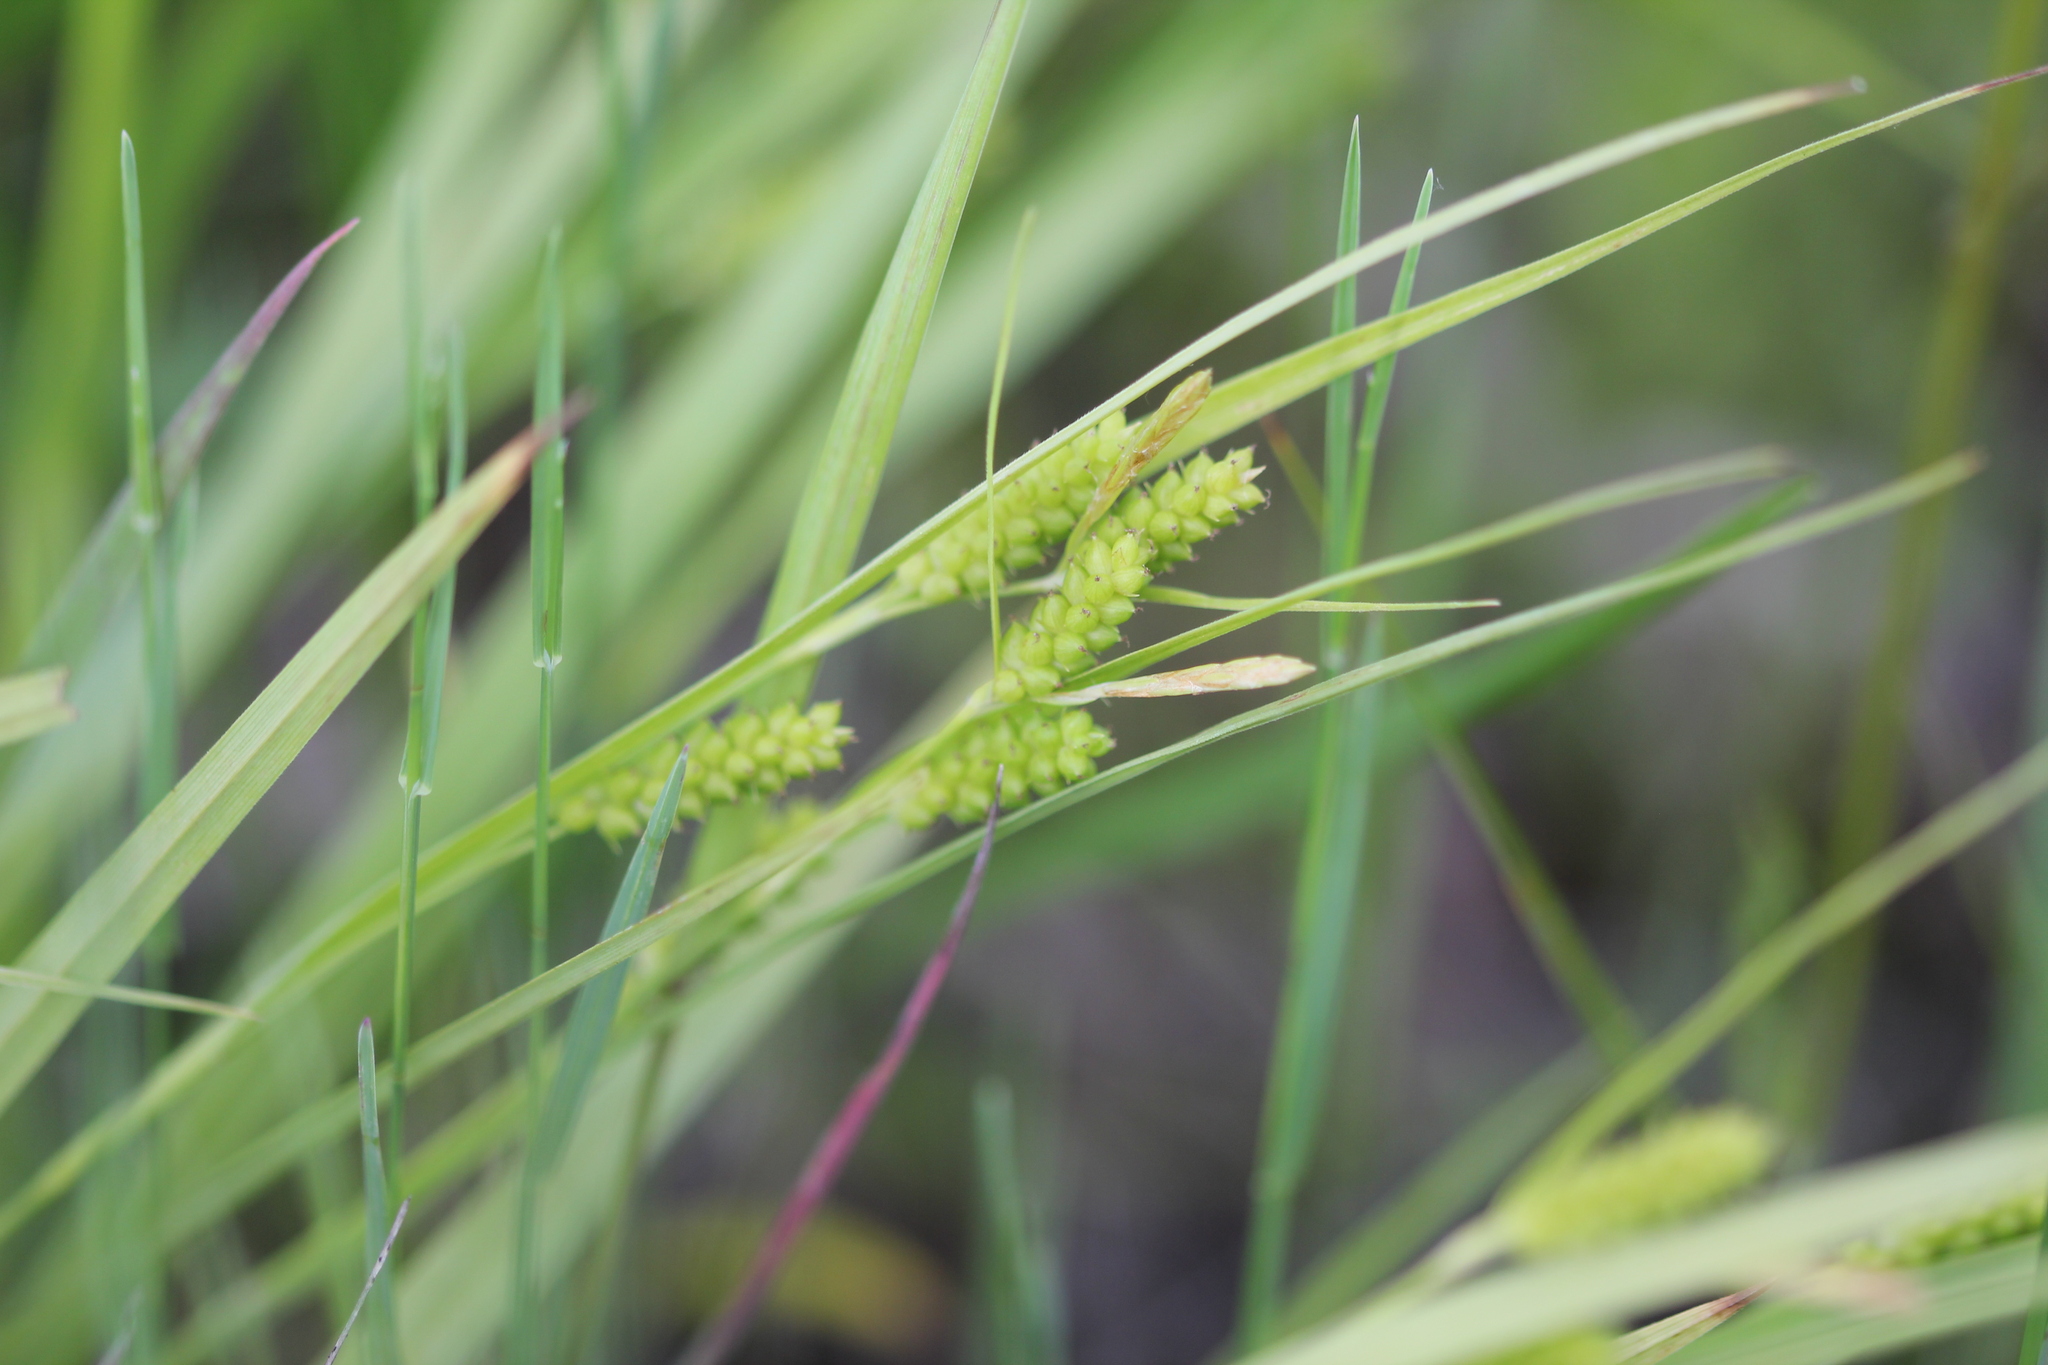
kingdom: Plantae
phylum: Tracheophyta
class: Liliopsida
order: Poales
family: Cyperaceae
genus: Carex
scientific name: Carex granularis
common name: Granular sedge
